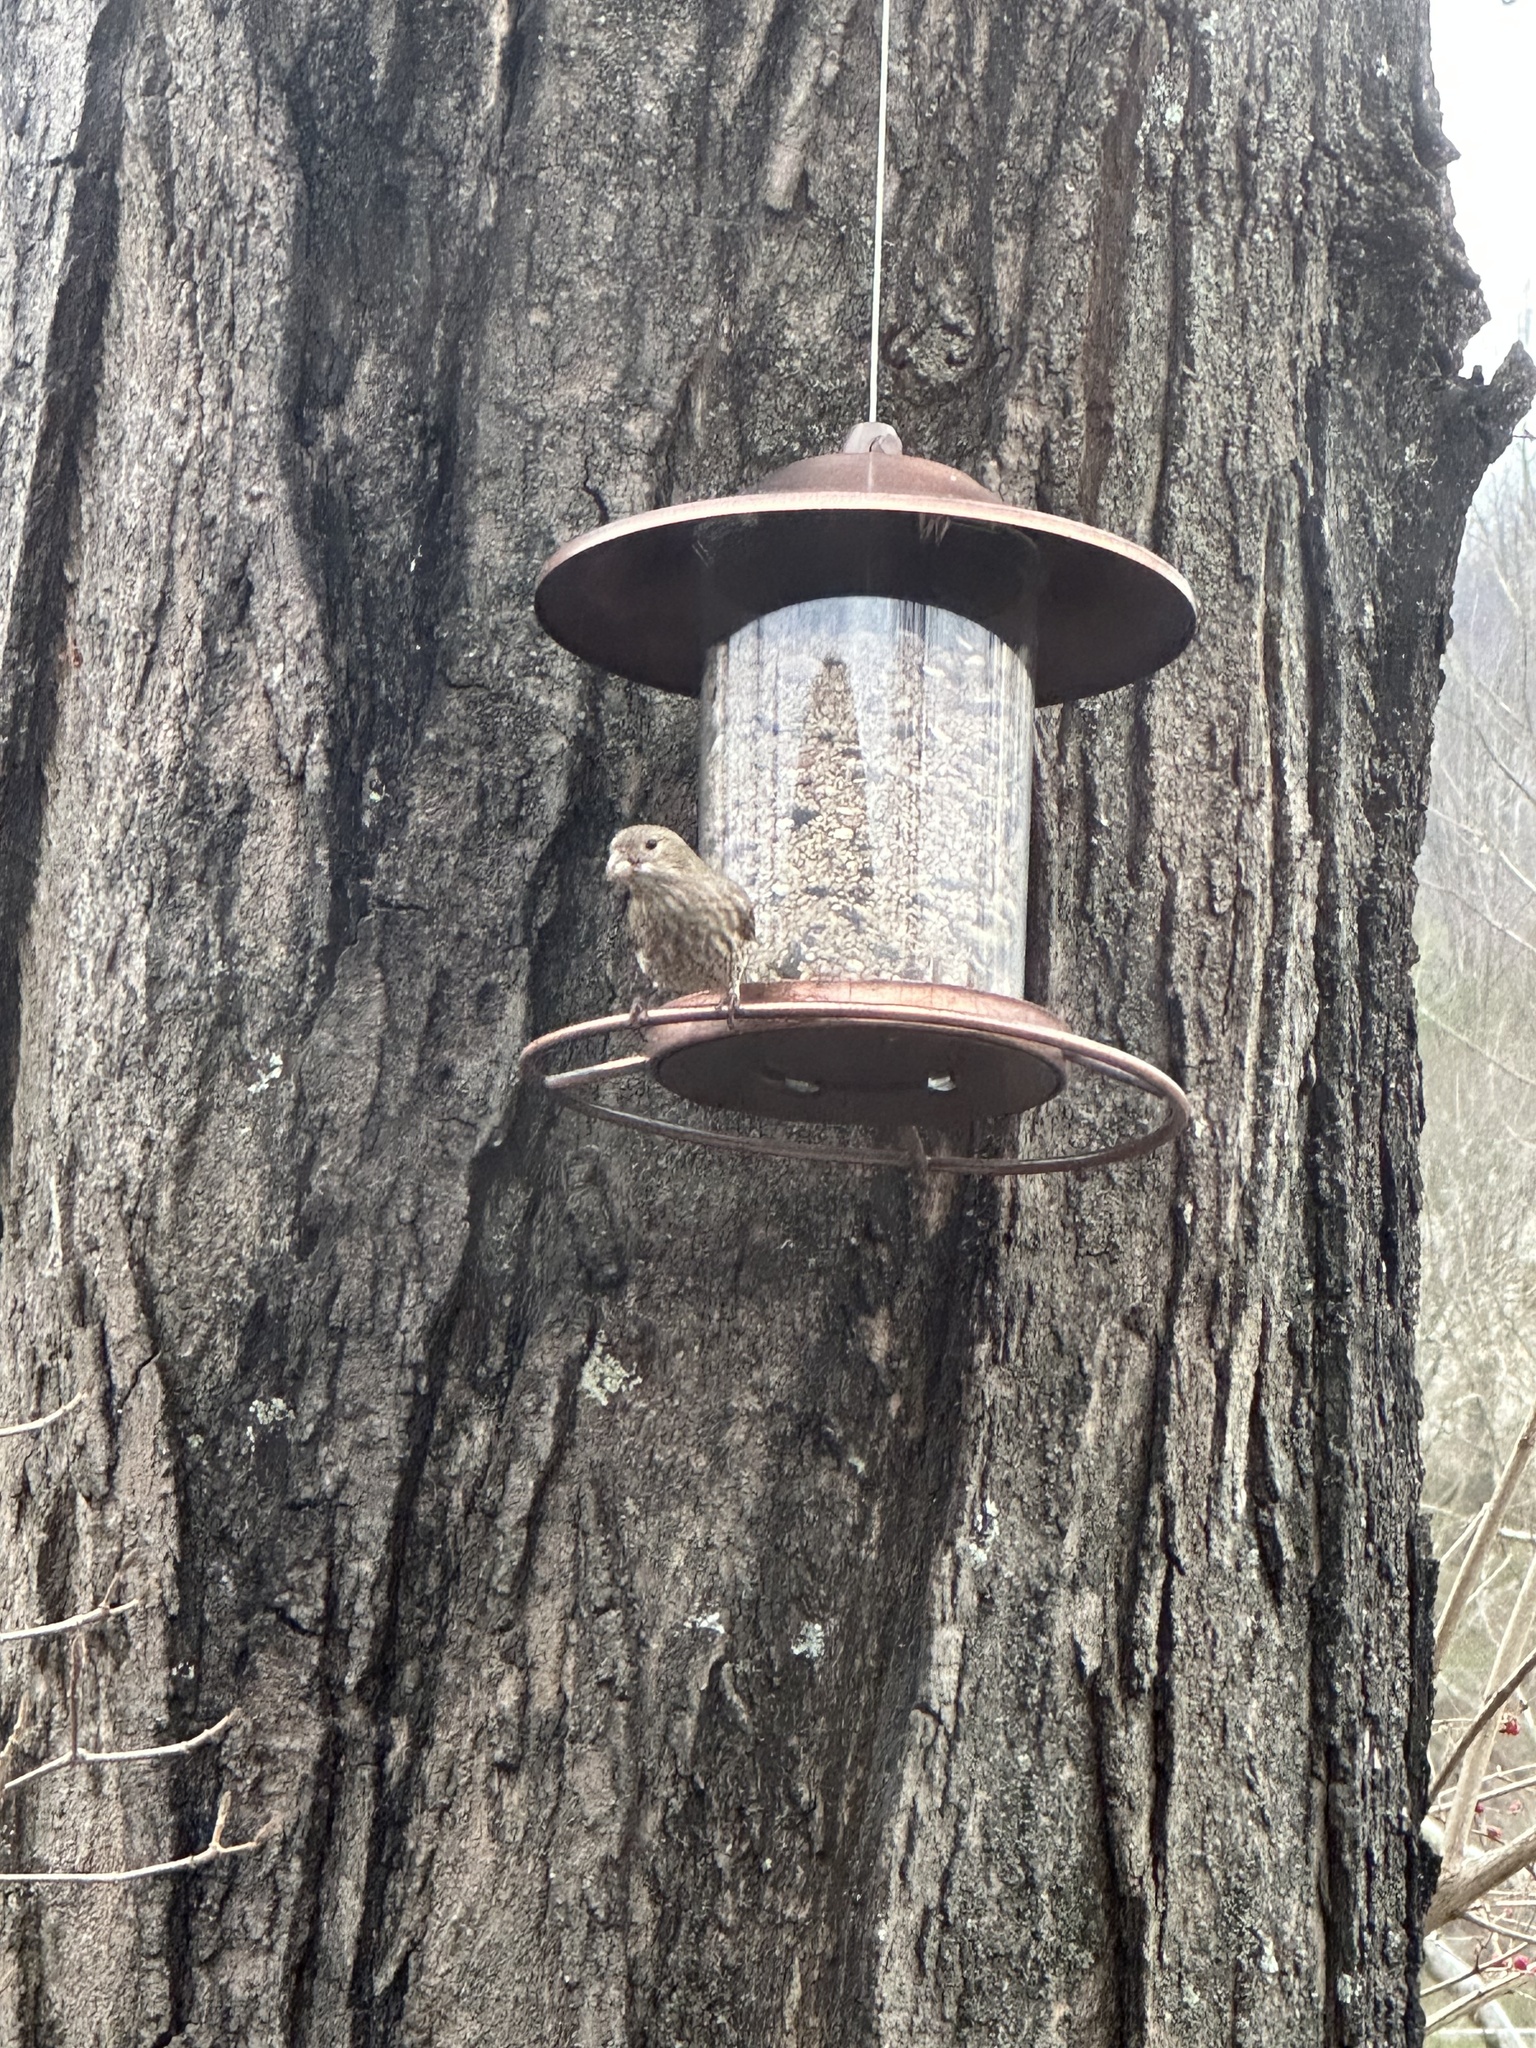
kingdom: Animalia
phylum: Chordata
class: Aves
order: Passeriformes
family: Fringillidae
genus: Haemorhous
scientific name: Haemorhous mexicanus
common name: House finch
